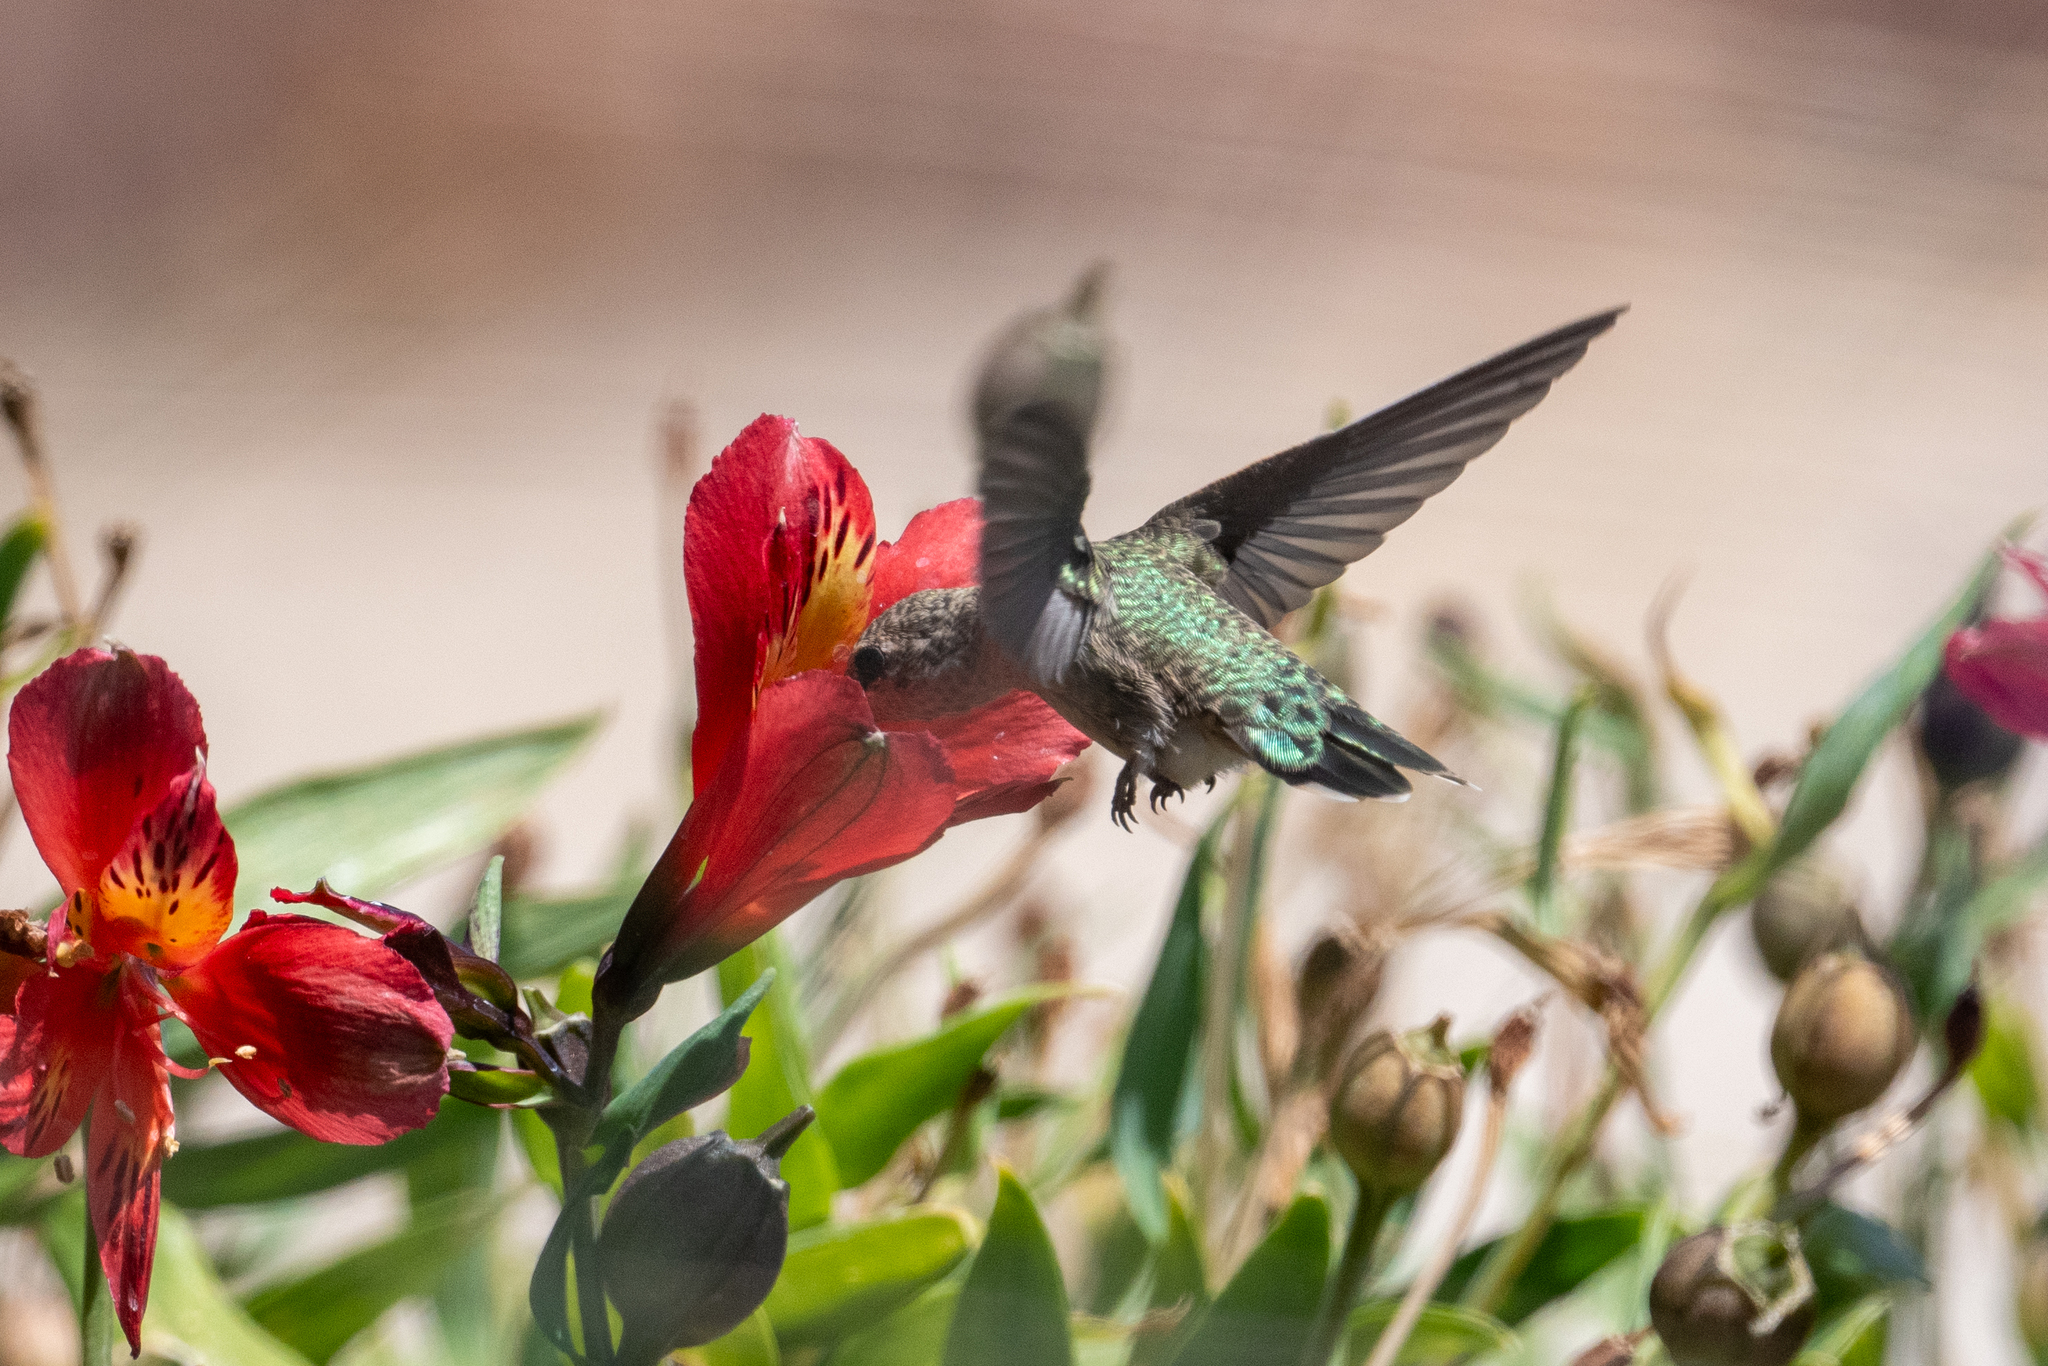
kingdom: Animalia
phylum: Chordata
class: Aves
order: Apodiformes
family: Trochilidae
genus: Calypte
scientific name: Calypte anna
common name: Anna's hummingbird
